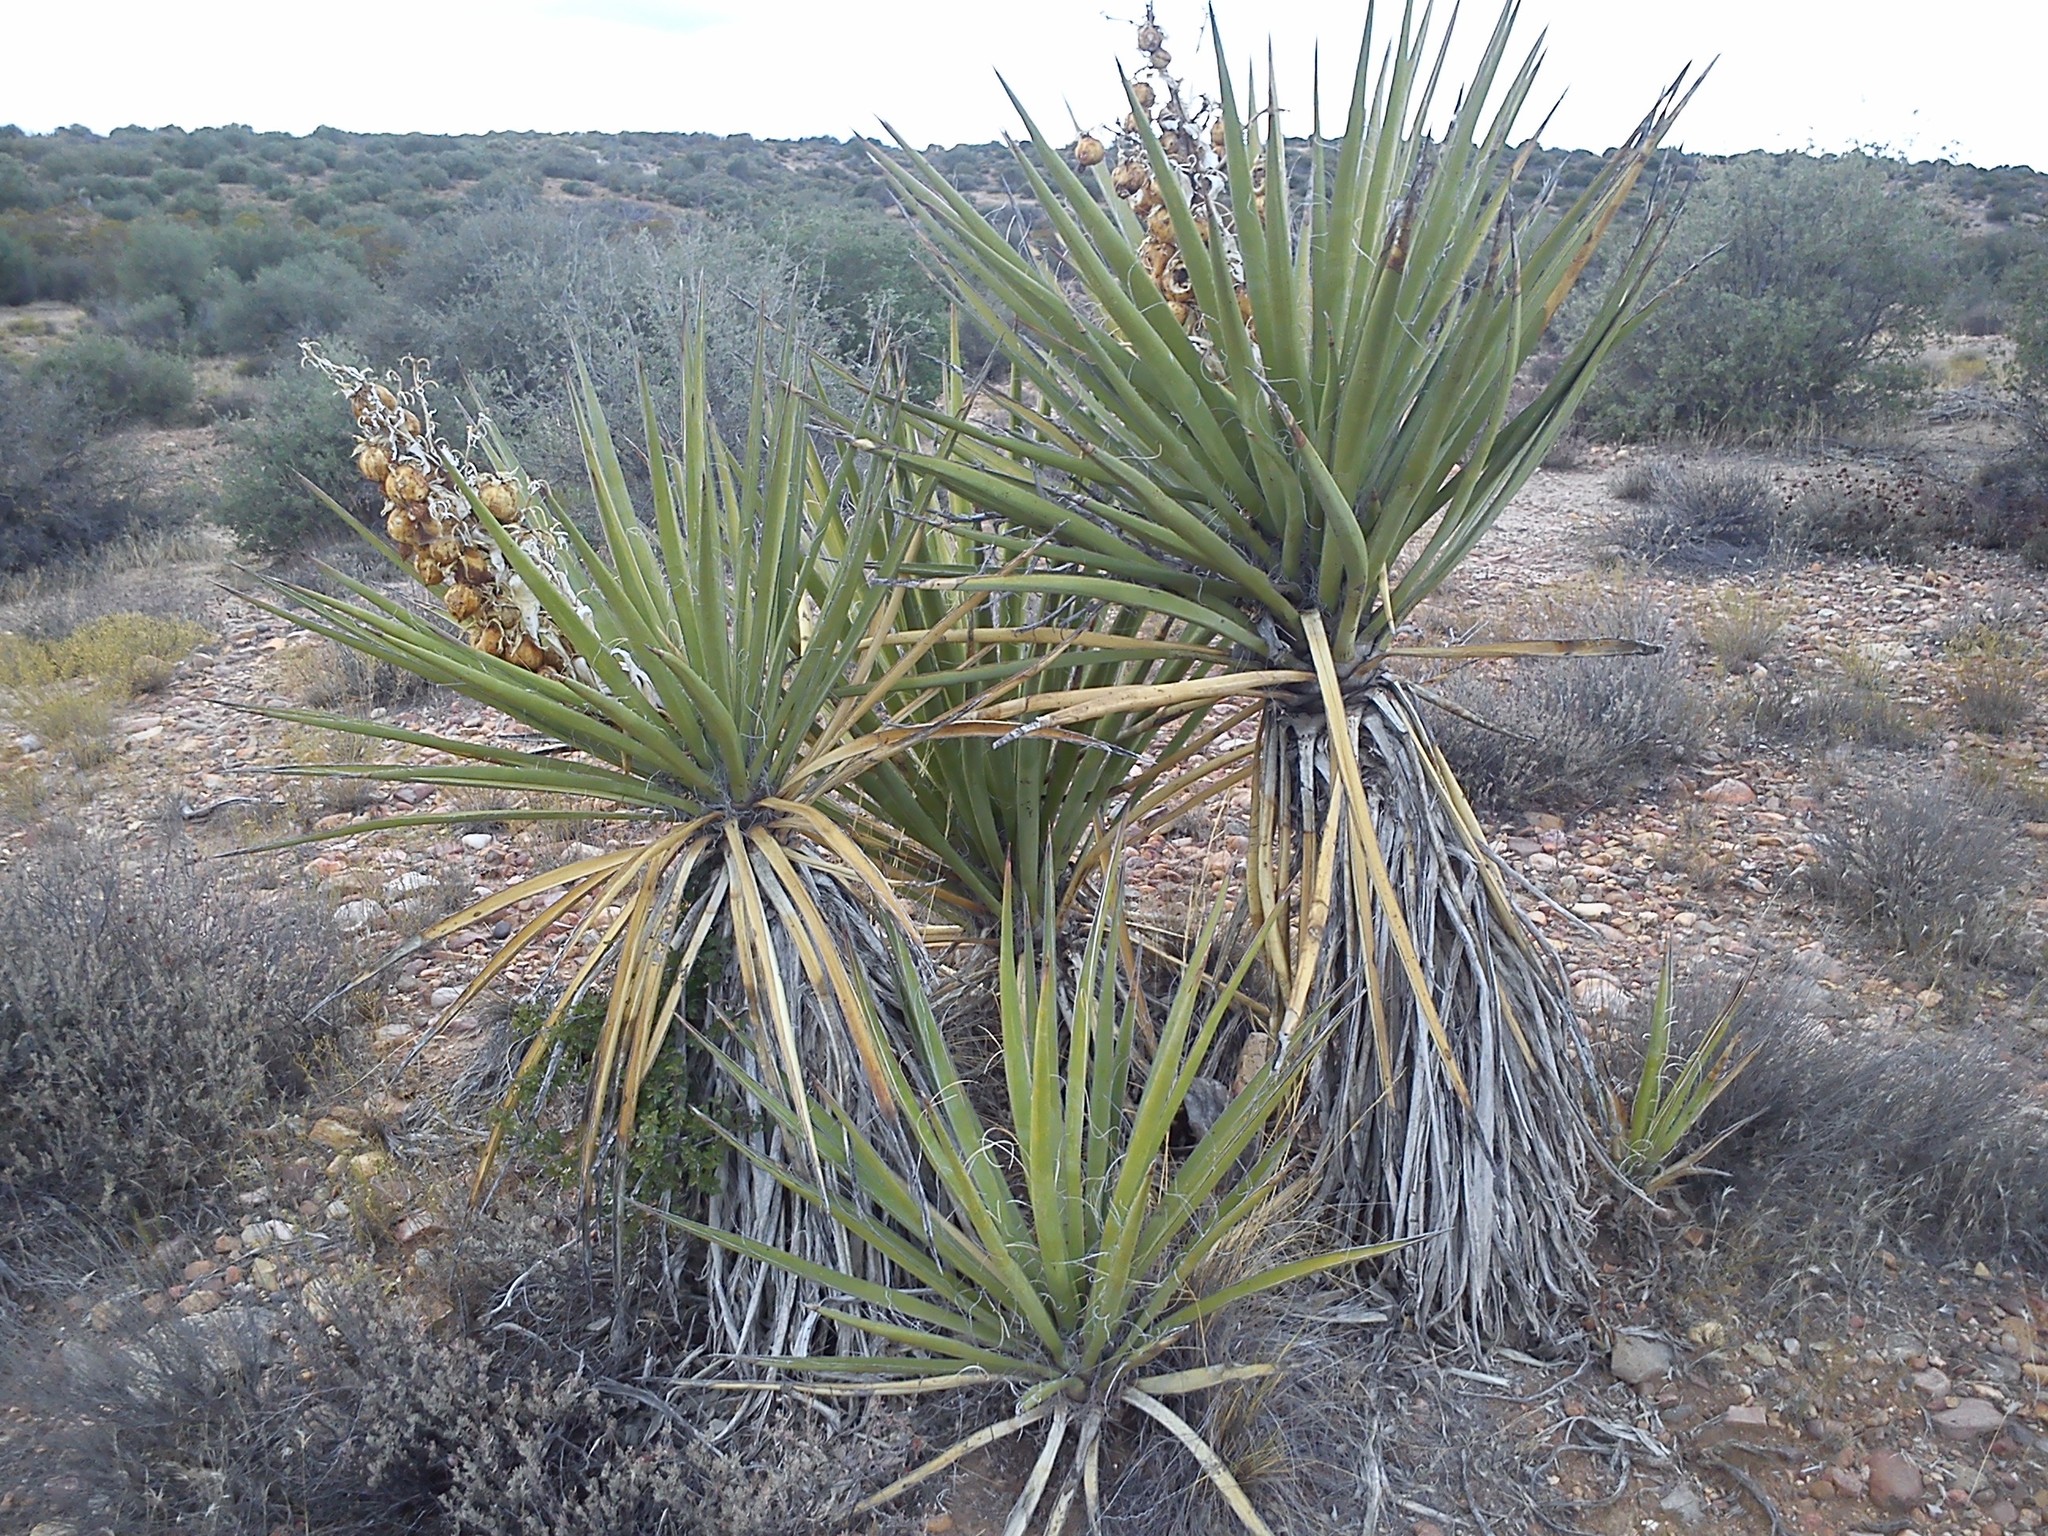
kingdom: Plantae
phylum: Tracheophyta
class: Liliopsida
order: Asparagales
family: Asparagaceae
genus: Yucca
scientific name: Yucca schidigera
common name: Mojave yucca
